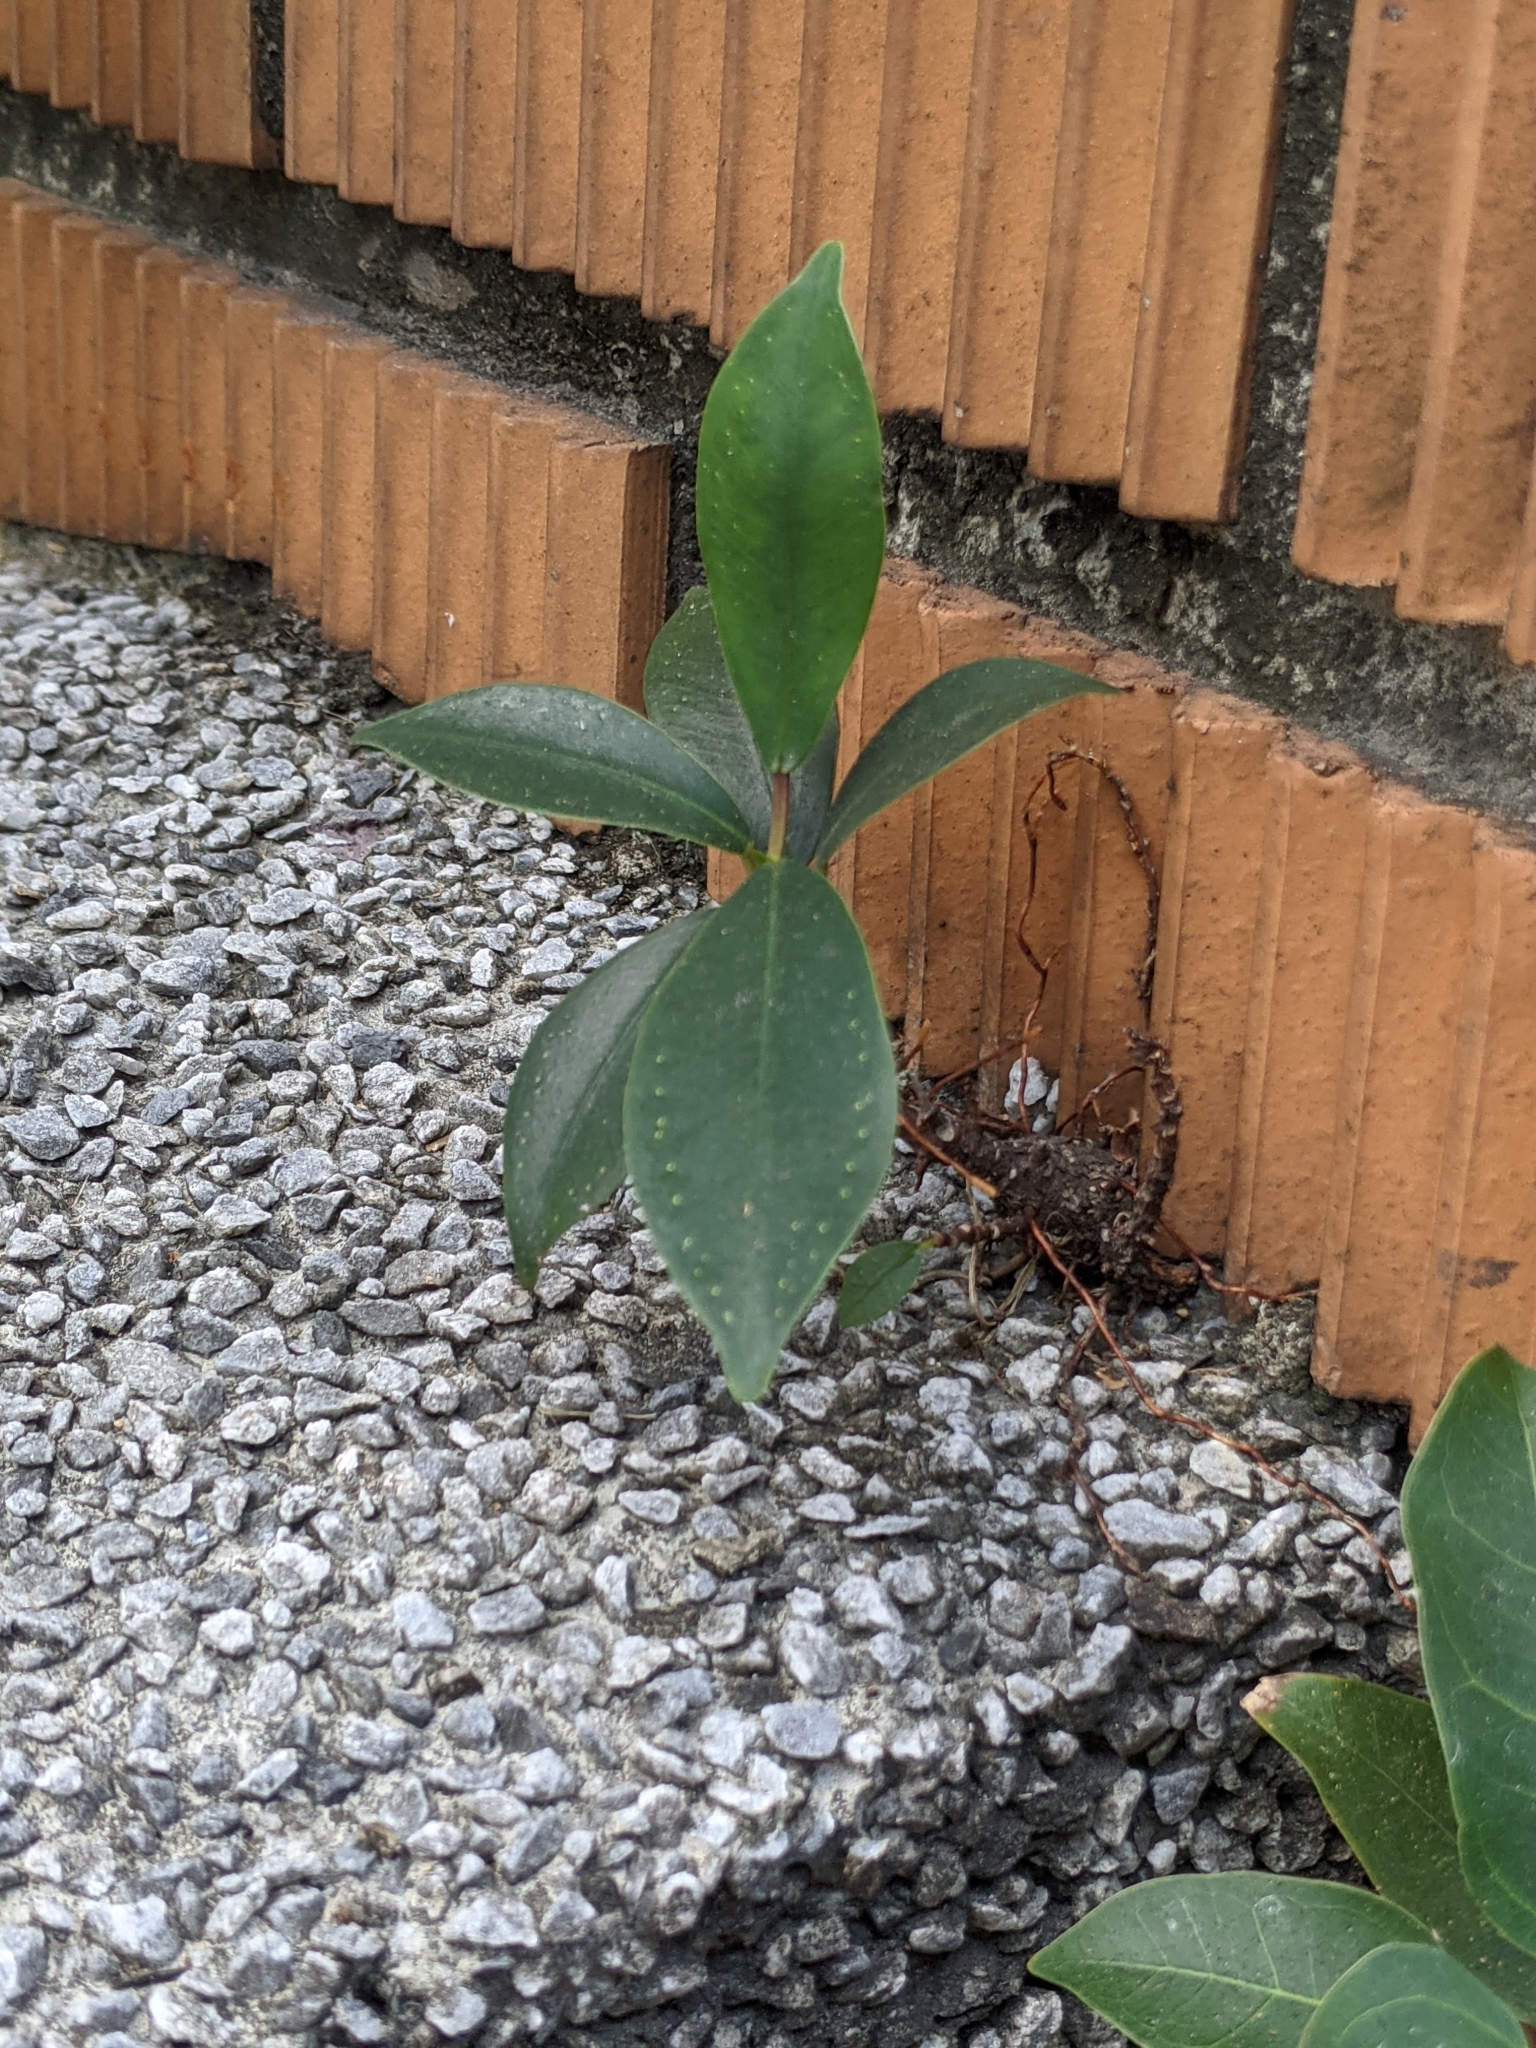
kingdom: Plantae
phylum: Tracheophyta
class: Magnoliopsida
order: Rosales
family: Moraceae
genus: Ficus
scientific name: Ficus microcarpa
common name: Chinese banyan
